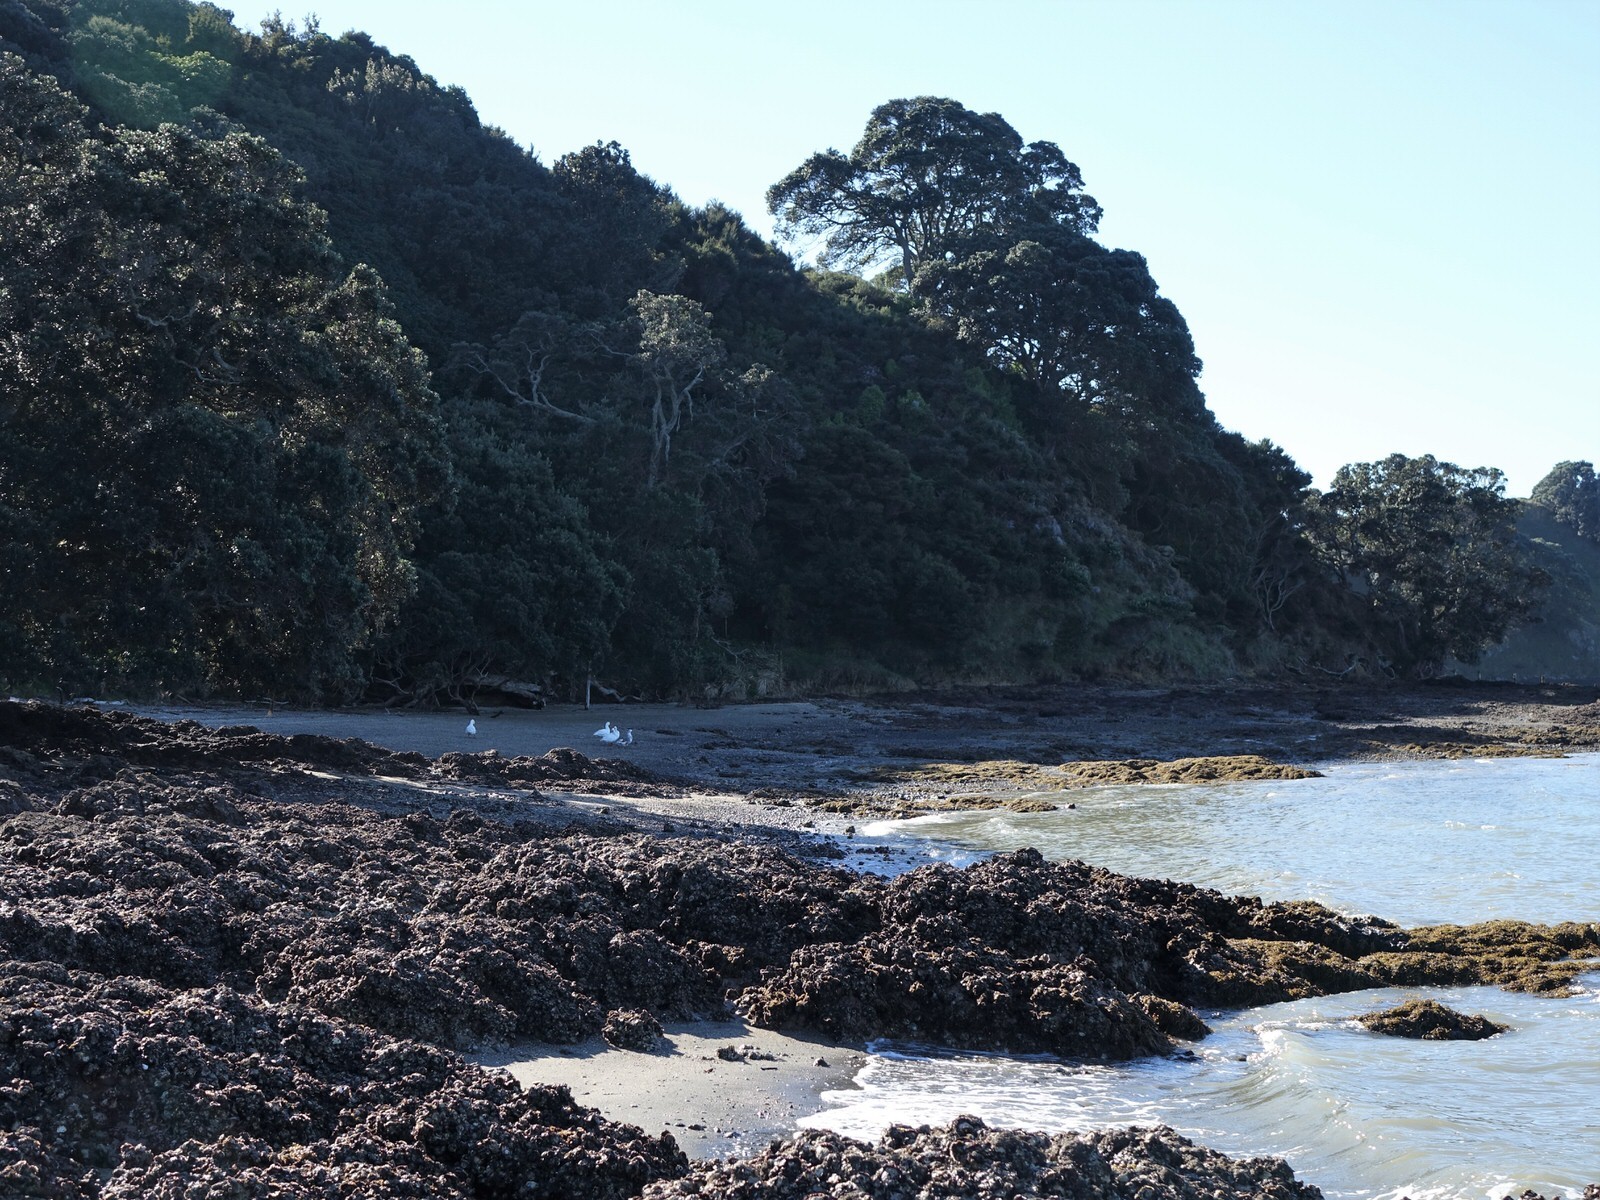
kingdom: Animalia
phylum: Annelida
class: Polychaeta
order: Sabellida
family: Sabellidae
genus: Sabella
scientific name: Sabella spallanzanii
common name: Feather duster worm
